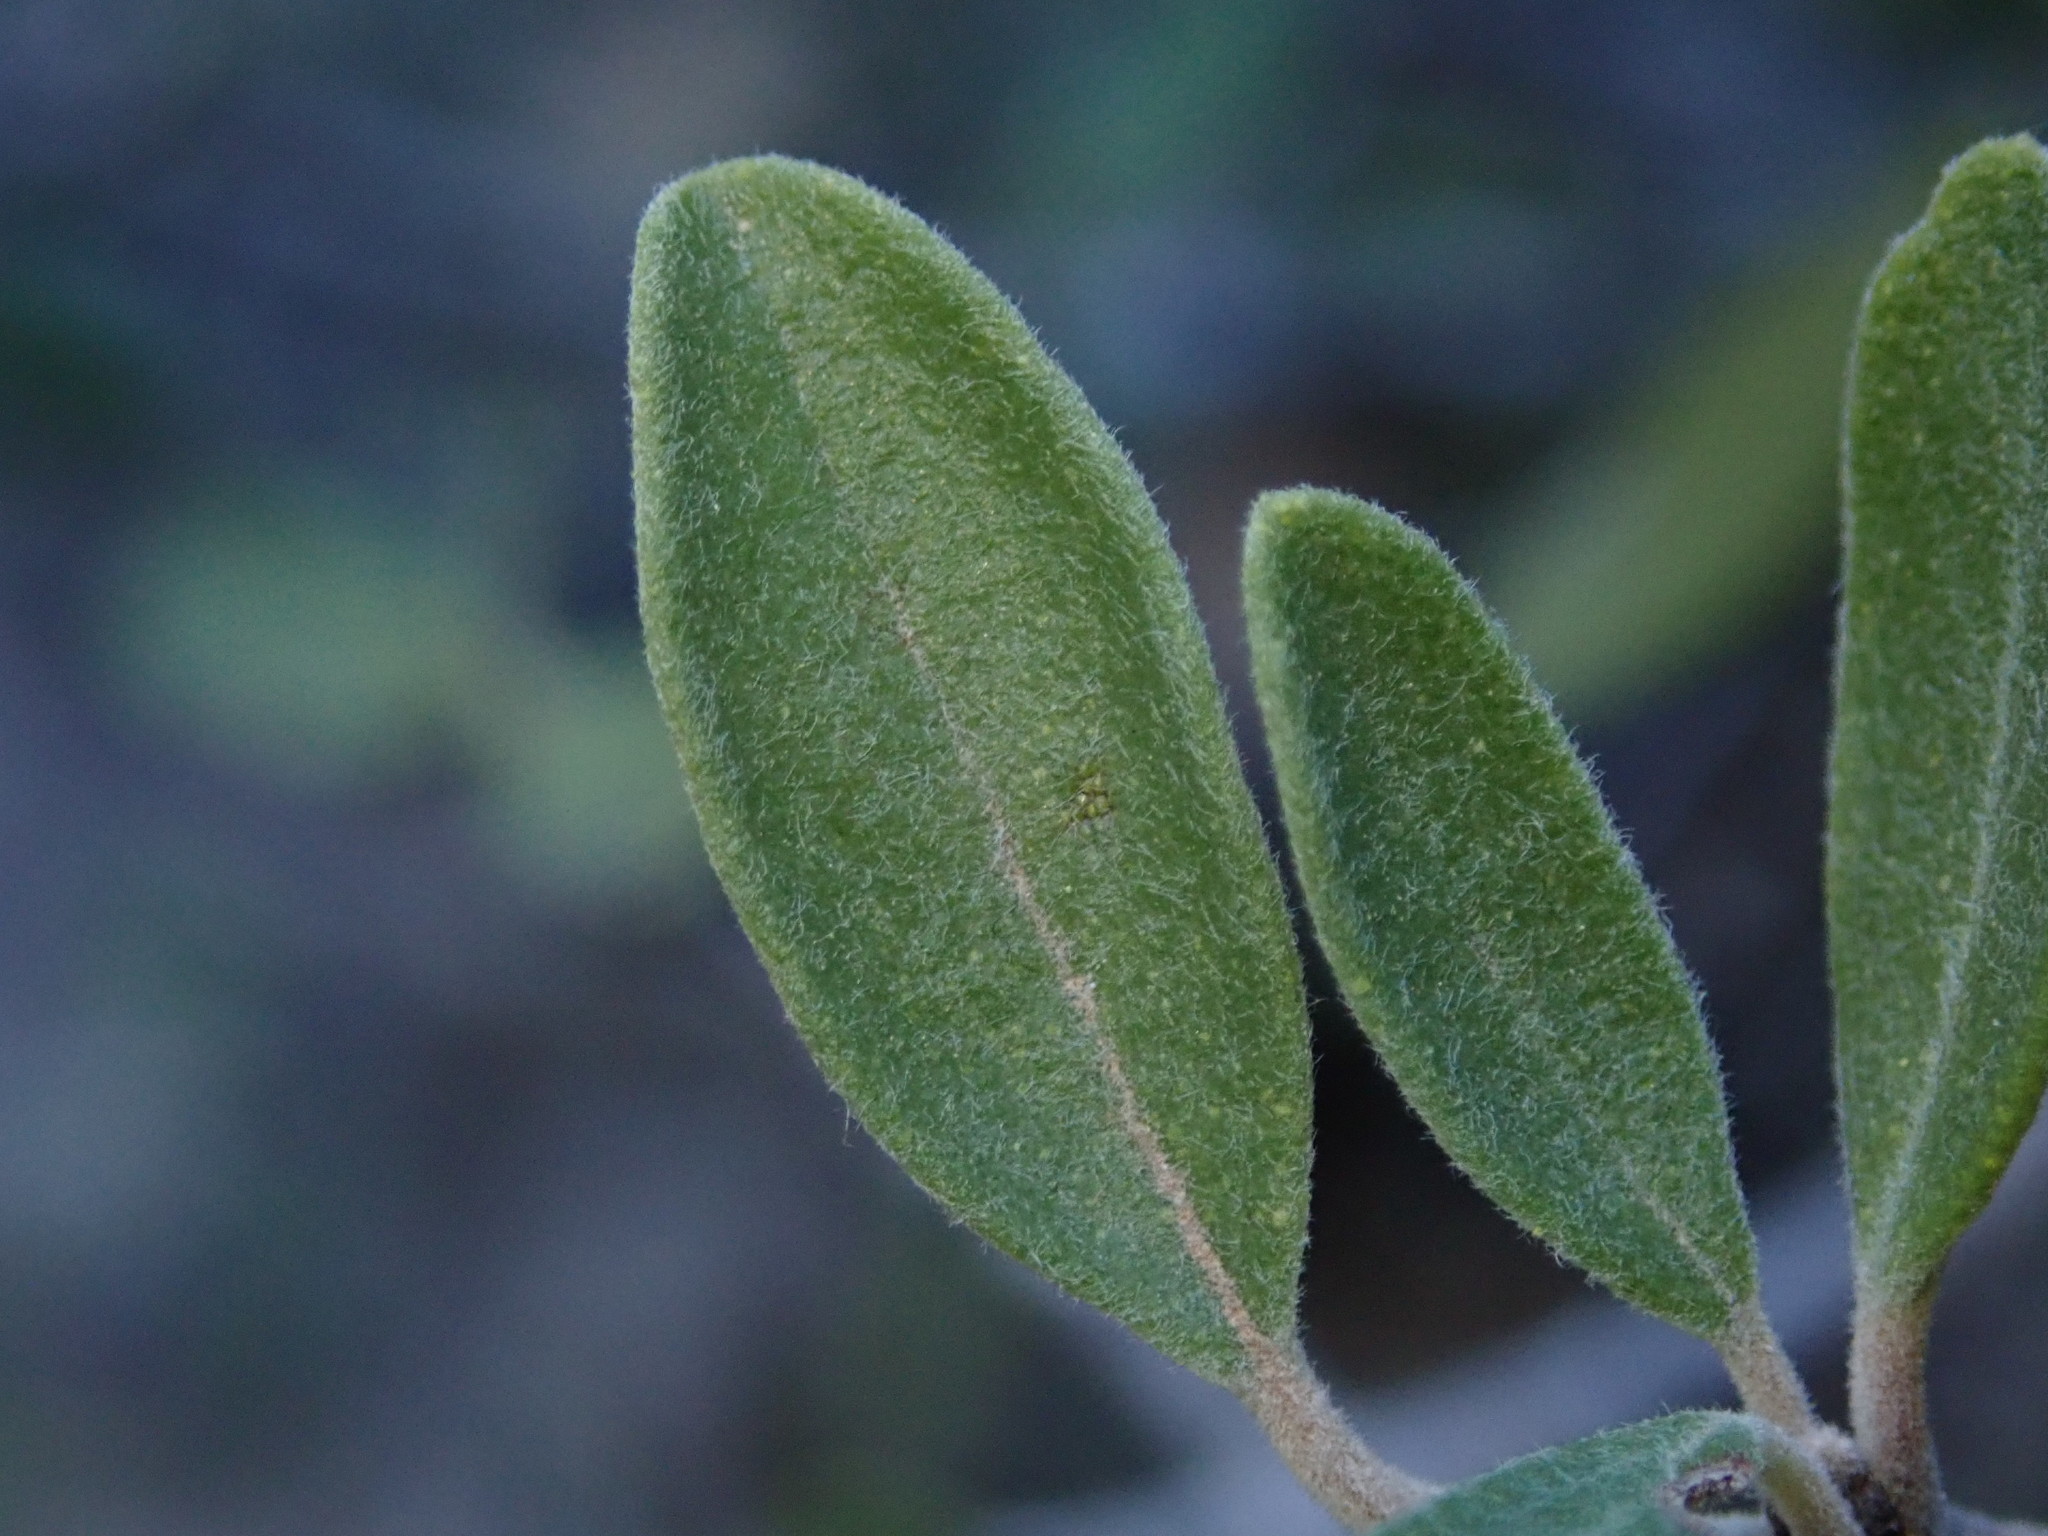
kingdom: Plantae
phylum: Tracheophyta
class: Magnoliopsida
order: Rosales
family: Rhamnaceae
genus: Ceanothus
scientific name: Ceanothus pauciflorus
